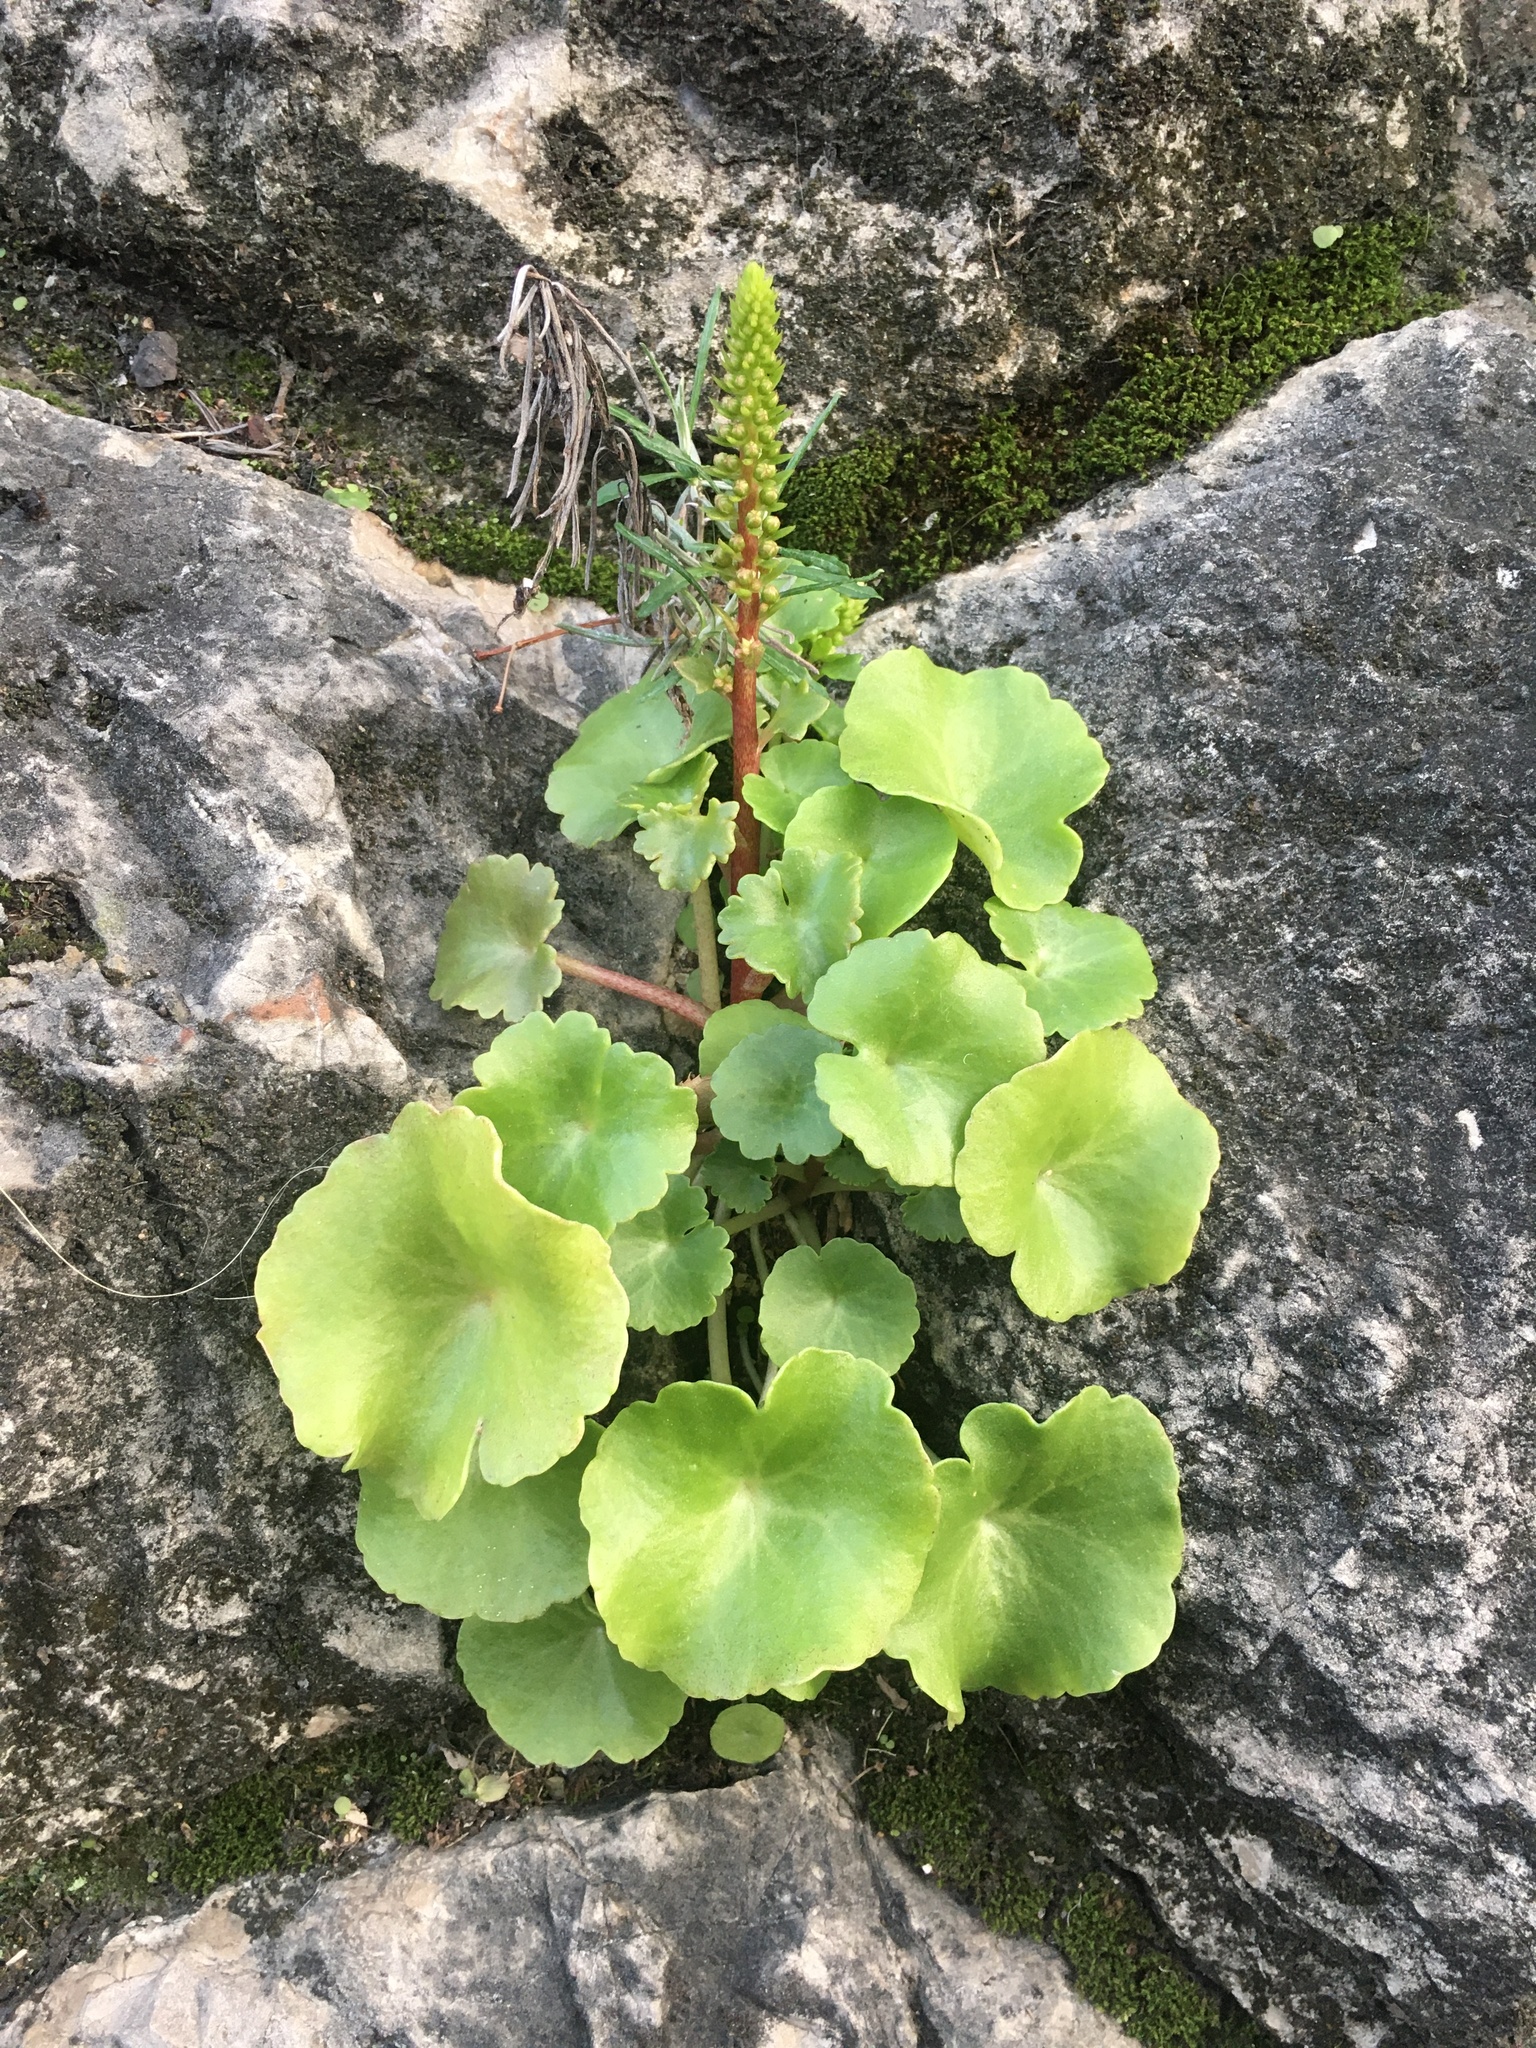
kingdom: Plantae
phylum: Tracheophyta
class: Magnoliopsida
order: Saxifragales
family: Crassulaceae
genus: Umbilicus
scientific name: Umbilicus rupestris
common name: Navelwort
